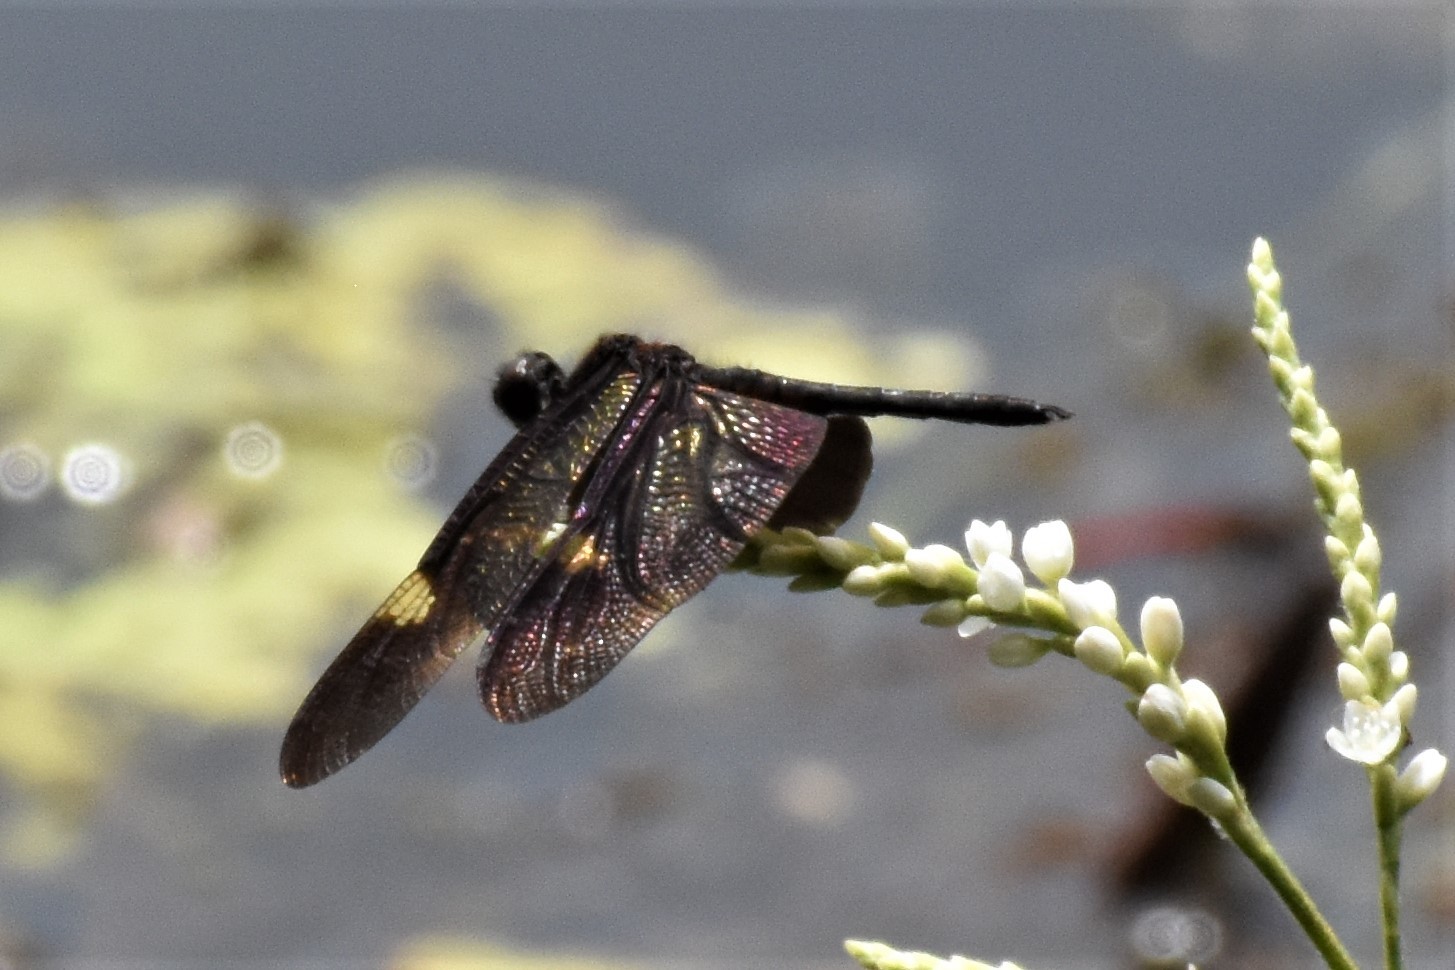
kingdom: Animalia
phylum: Arthropoda
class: Insecta
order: Odonata
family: Libellulidae
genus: Rhyothemis
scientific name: Rhyothemis princeps
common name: Sapphire flutterer
